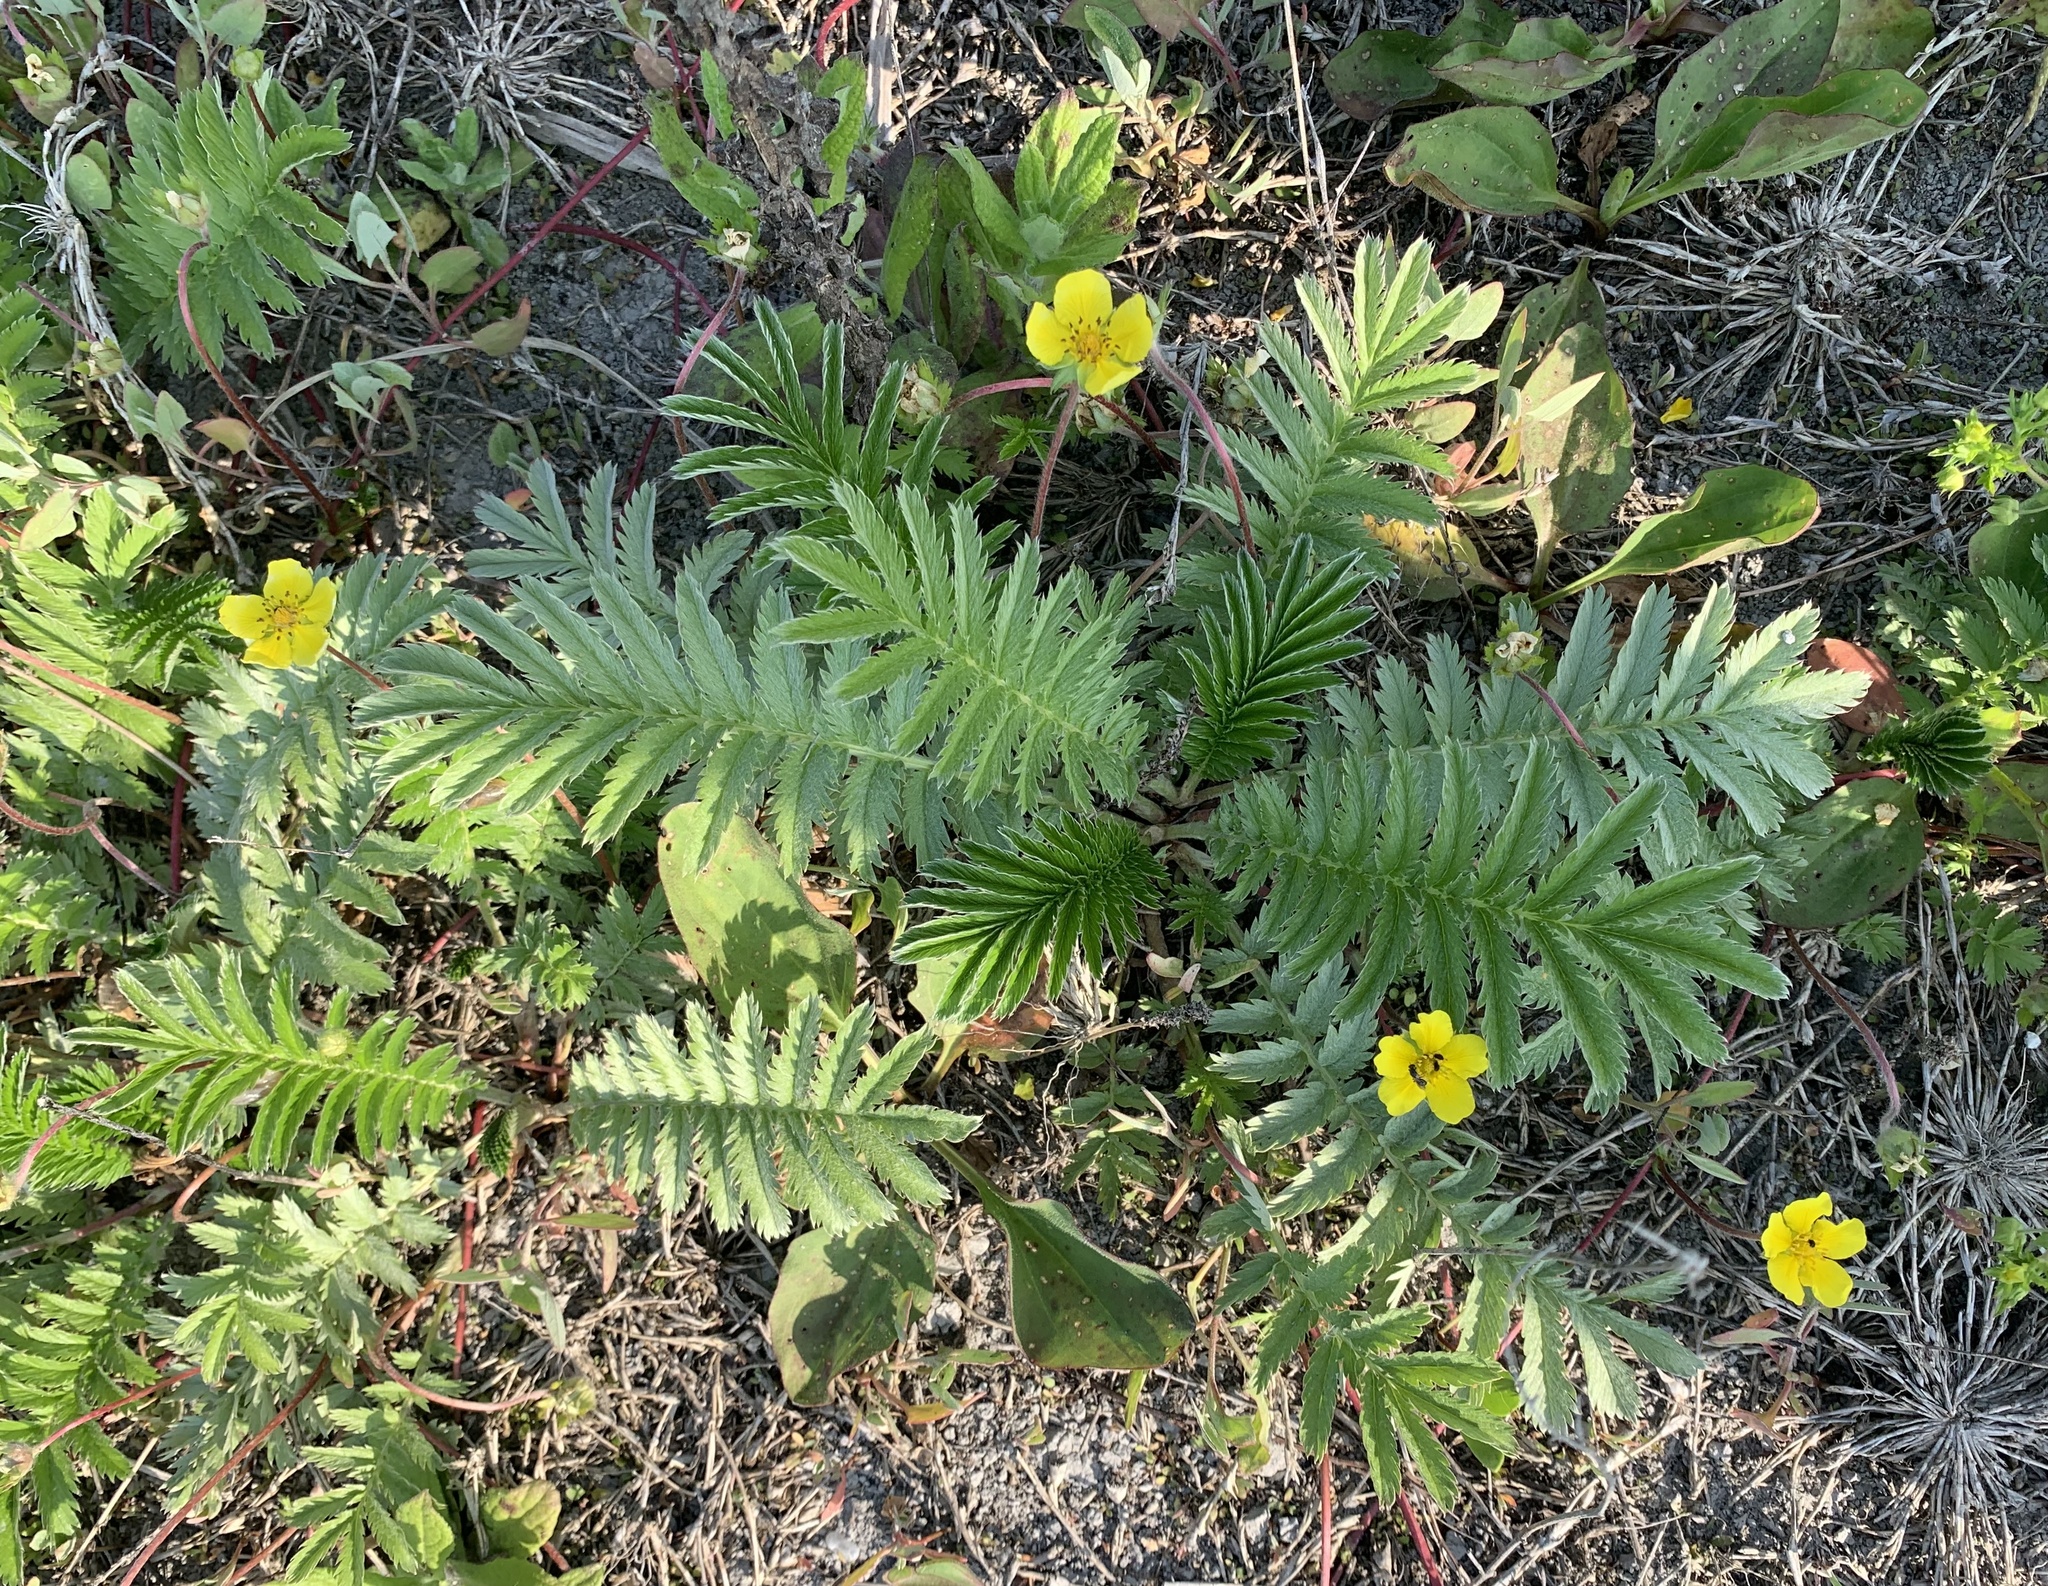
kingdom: Plantae
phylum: Tracheophyta
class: Magnoliopsida
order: Rosales
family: Rosaceae
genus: Argentina
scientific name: Argentina anserina
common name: Common silverweed
